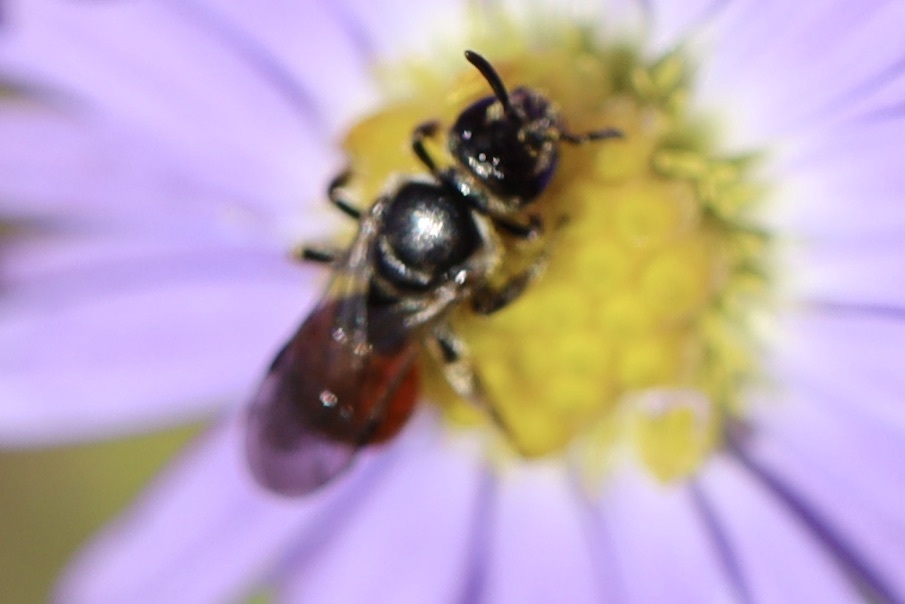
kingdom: Animalia
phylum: Arthropoda
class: Insecta
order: Hymenoptera
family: Halictidae
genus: Lasioglossum
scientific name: Lasioglossum ovaliceps
